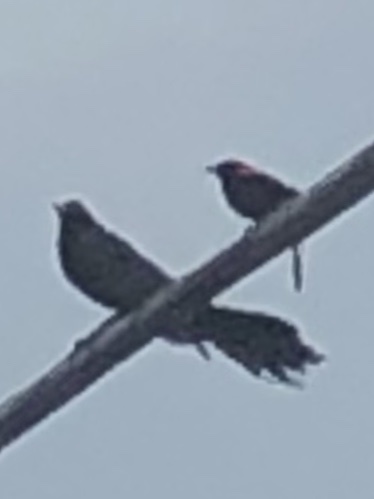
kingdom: Animalia
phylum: Chordata
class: Aves
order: Passeriformes
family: Icteridae
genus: Agelaius
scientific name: Agelaius phoeniceus
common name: Red-winged blackbird
